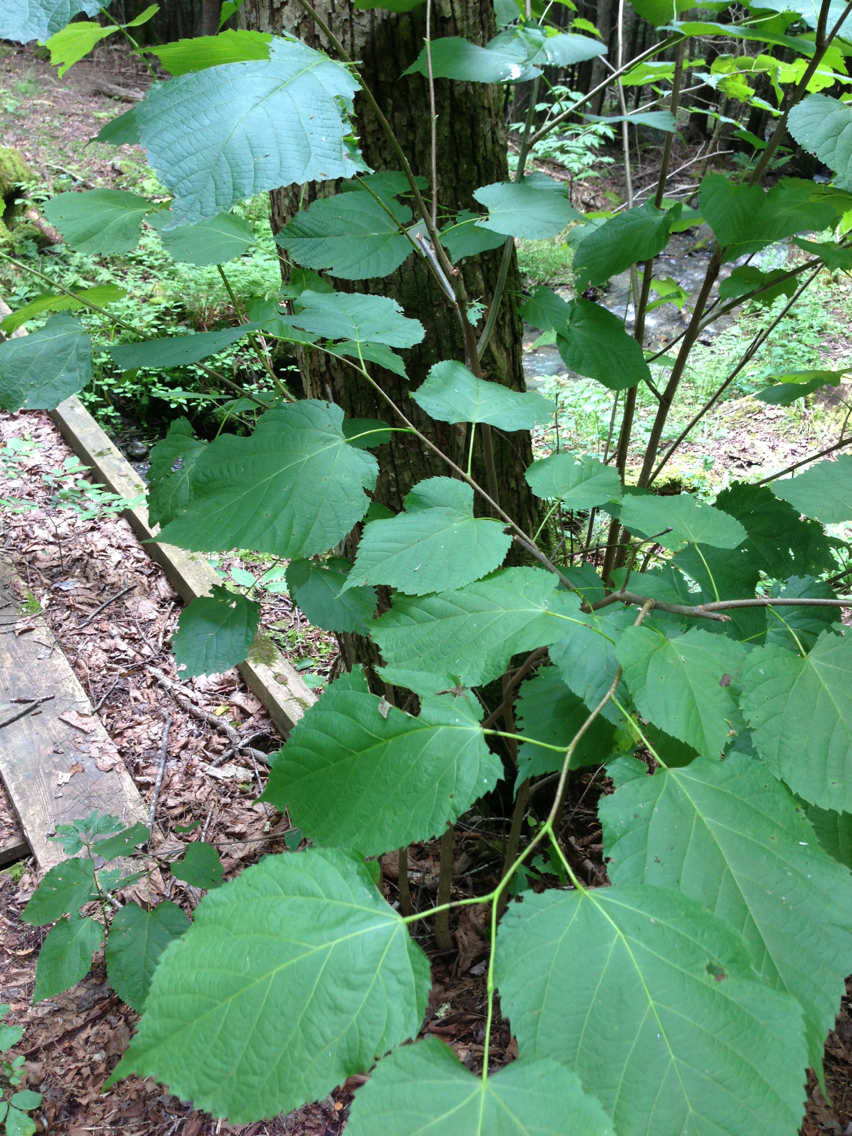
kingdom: Plantae
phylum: Tracheophyta
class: Magnoliopsida
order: Malvales
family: Malvaceae
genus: Tilia
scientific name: Tilia americana
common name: Basswood
